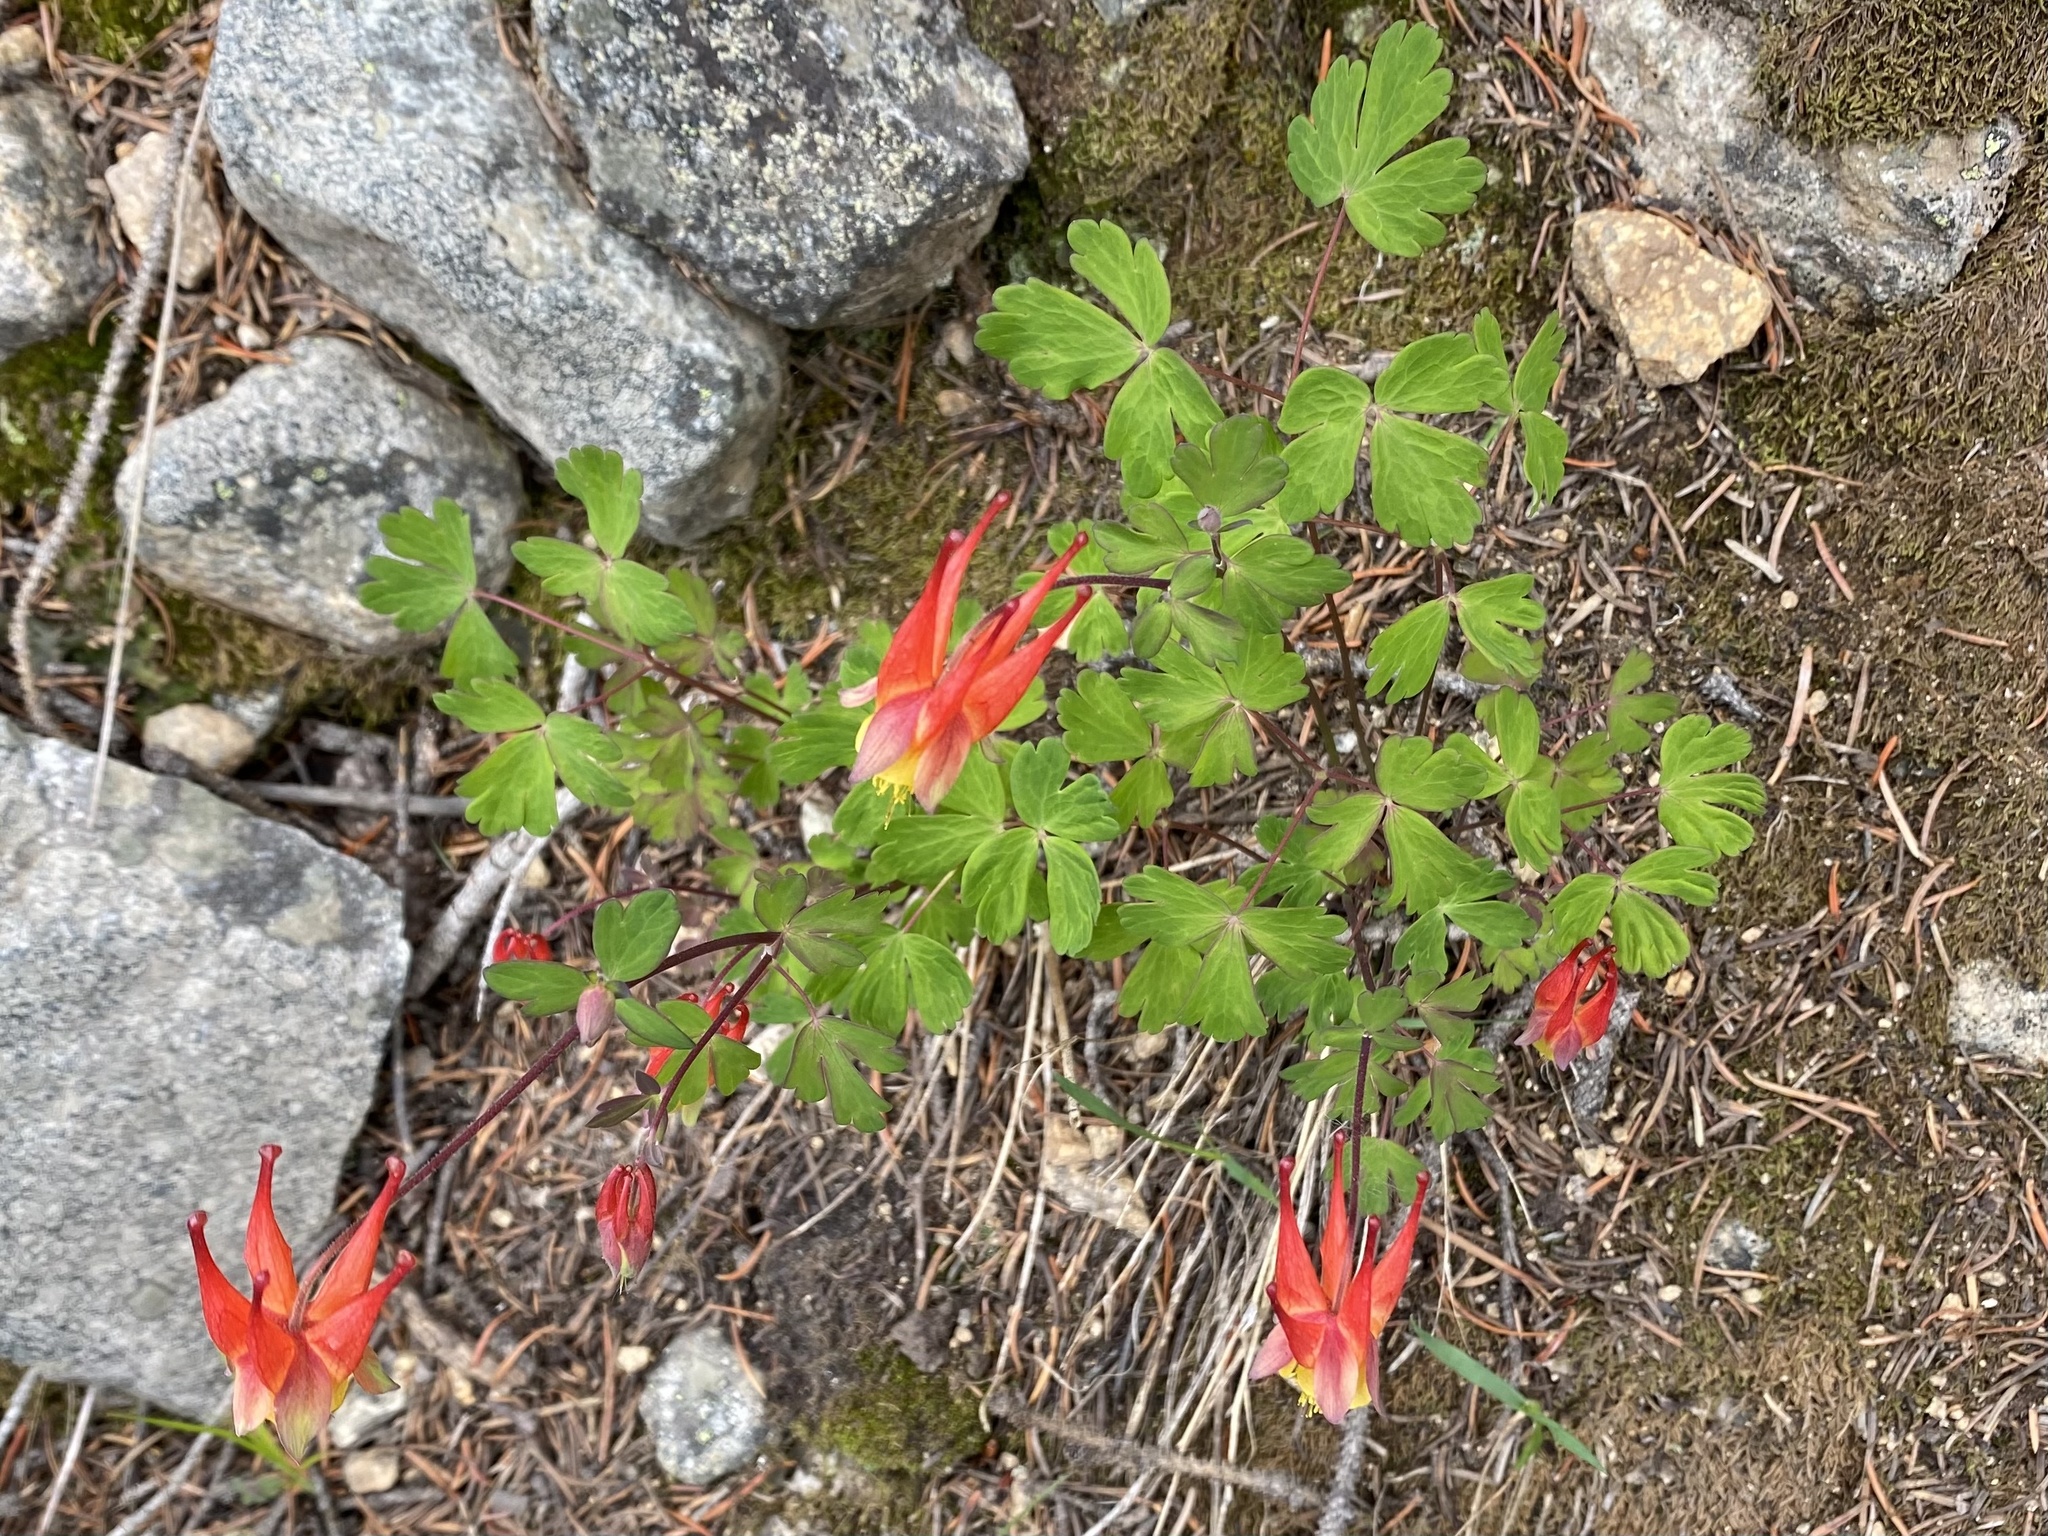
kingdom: Plantae
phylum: Tracheophyta
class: Magnoliopsida
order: Ranunculales
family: Ranunculaceae
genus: Aquilegia
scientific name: Aquilegia elegantula
